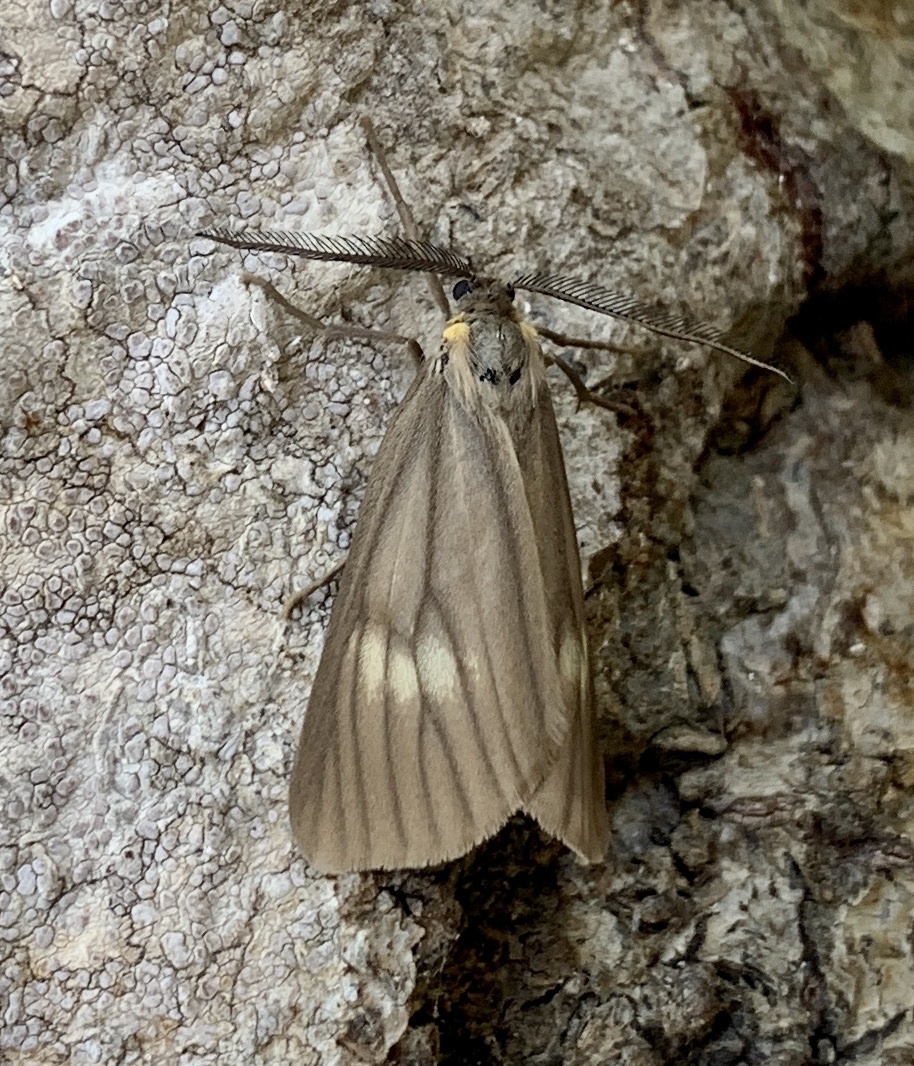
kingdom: Animalia
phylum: Arthropoda
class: Insecta
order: Lepidoptera
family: Notodontidae
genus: Phryganidia
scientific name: Phryganidia californica
